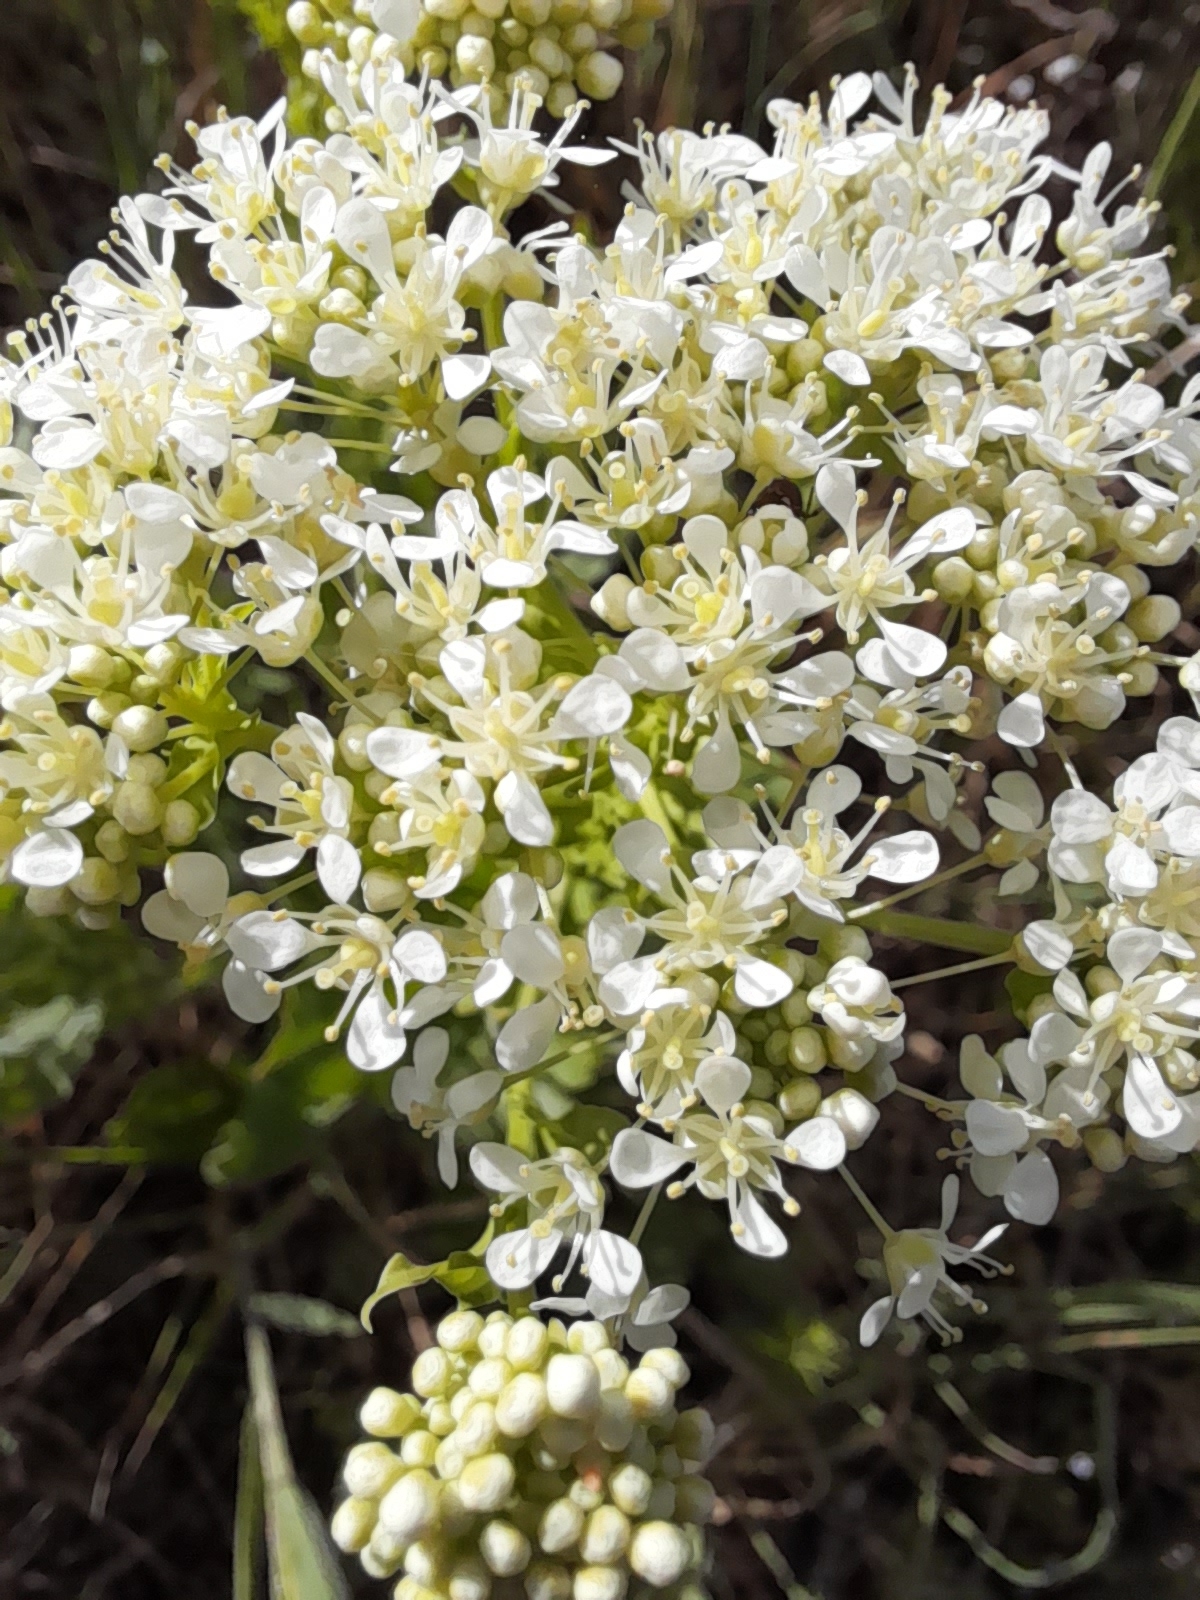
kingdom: Plantae
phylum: Tracheophyta
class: Magnoliopsida
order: Brassicales
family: Brassicaceae
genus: Lepidium
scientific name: Lepidium draba
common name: Hoary cress
